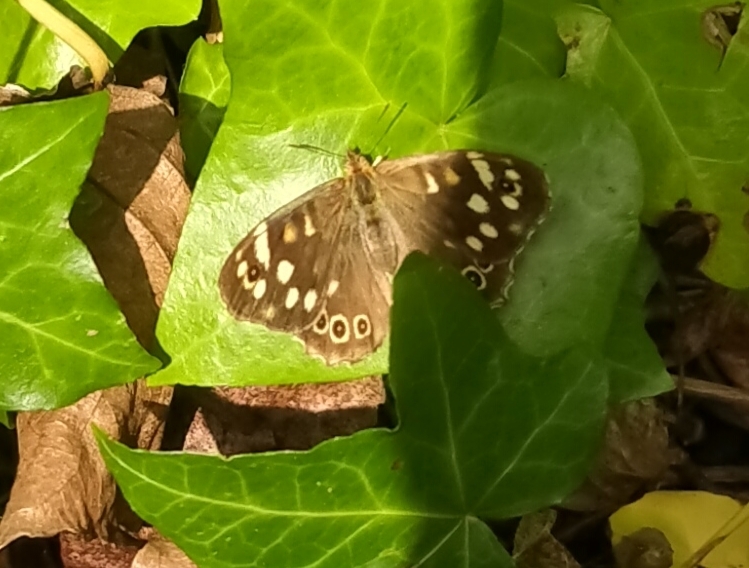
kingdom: Animalia
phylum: Arthropoda
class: Insecta
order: Lepidoptera
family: Nymphalidae
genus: Pararge
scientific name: Pararge aegeria
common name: Speckled wood
